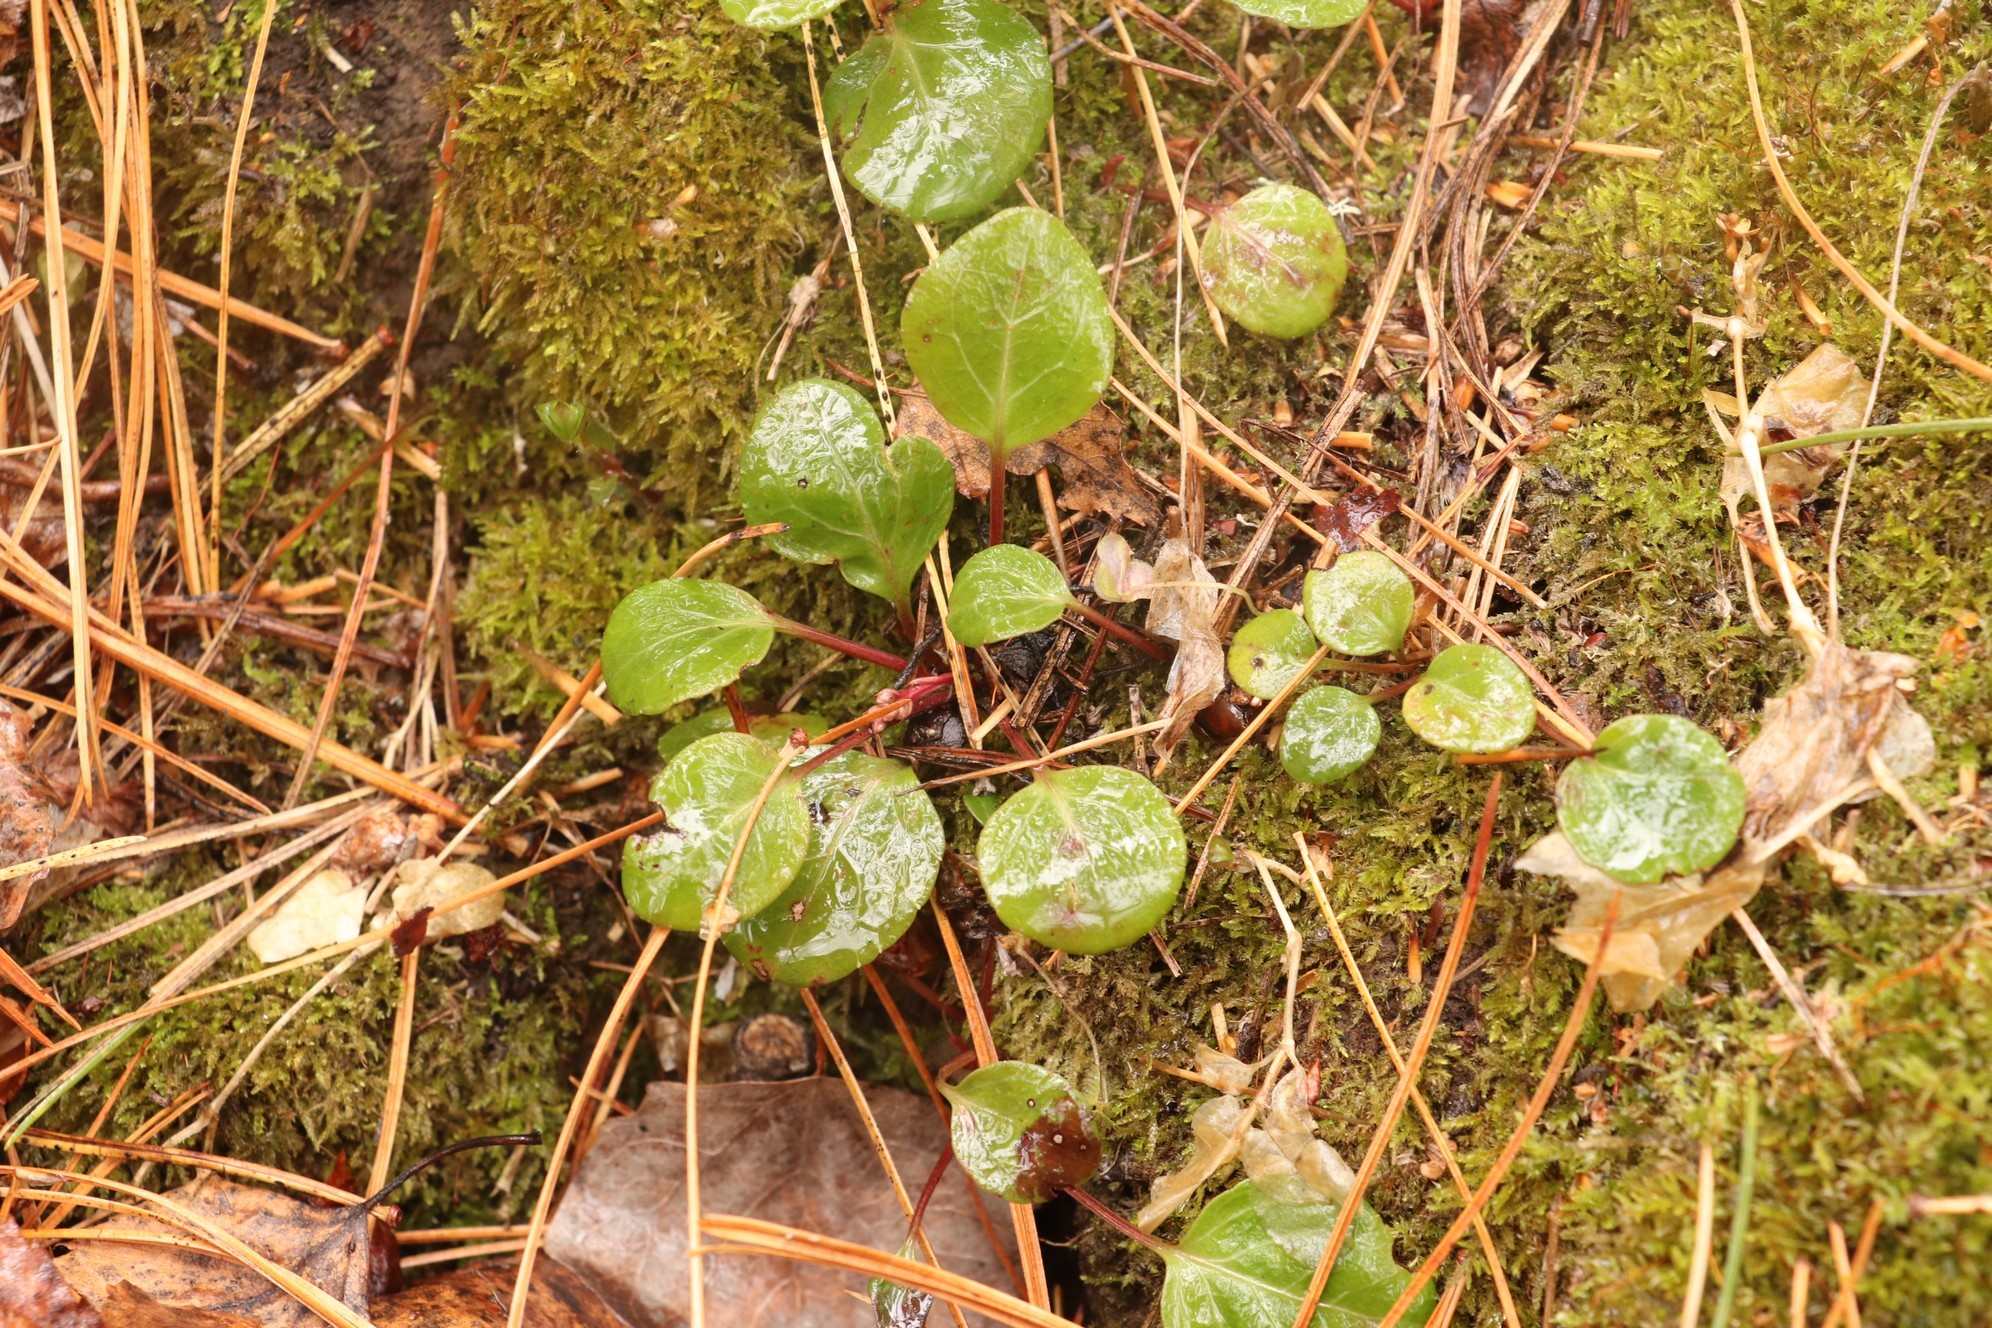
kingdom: Plantae
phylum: Tracheophyta
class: Magnoliopsida
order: Ericales
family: Ericaceae
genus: Pyrola
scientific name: Pyrola chlorantha
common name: Green wintergreen
